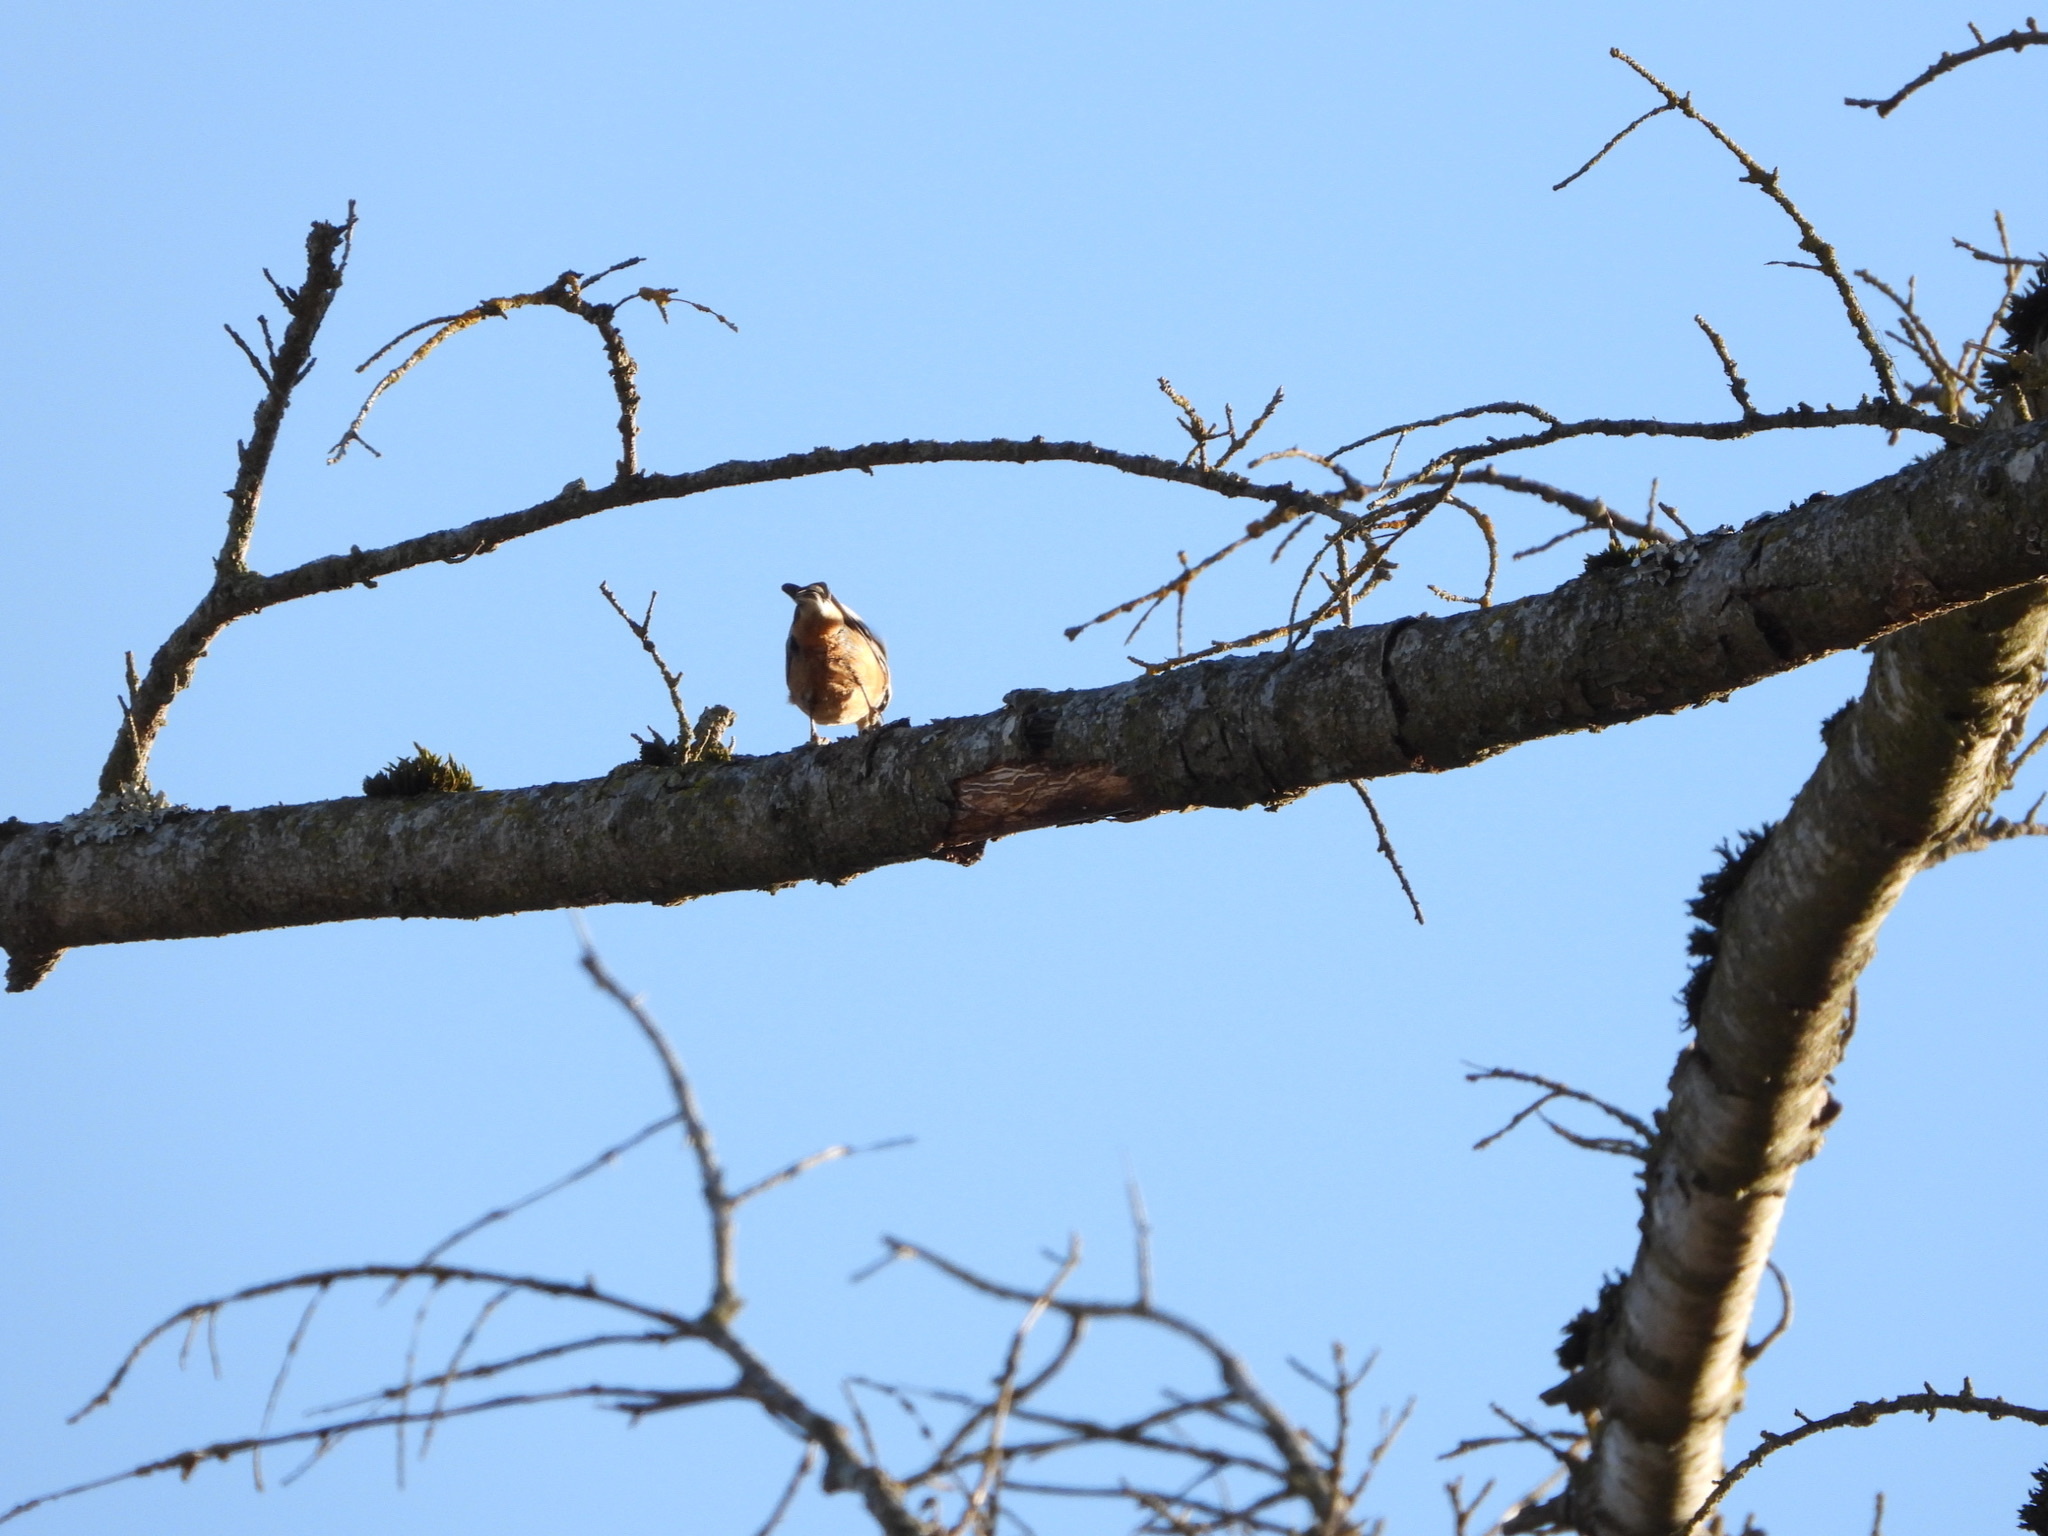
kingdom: Animalia
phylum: Chordata
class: Aves
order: Passeriformes
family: Sittidae
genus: Sitta
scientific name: Sitta canadensis
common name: Red-breasted nuthatch
